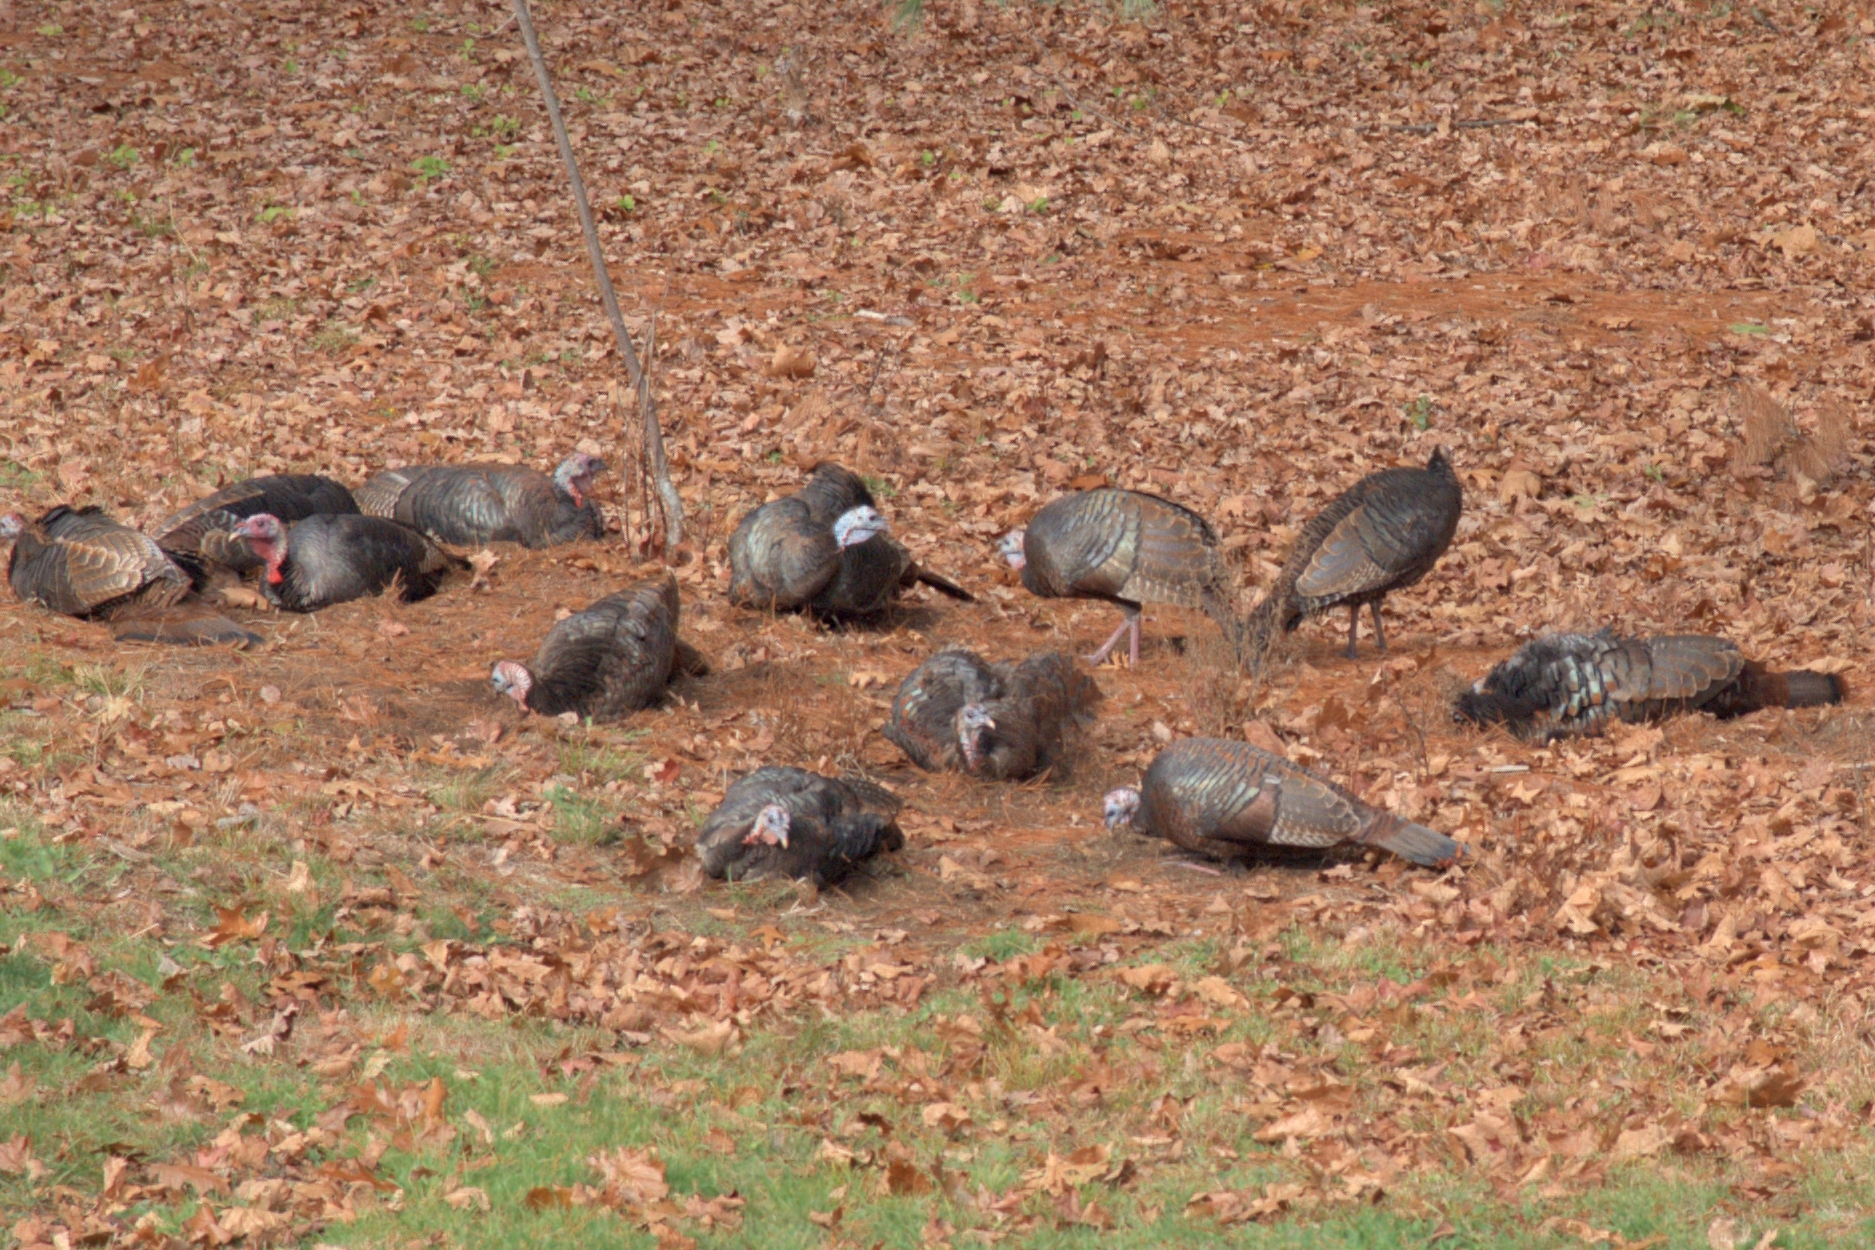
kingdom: Animalia
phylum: Chordata
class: Aves
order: Galliformes
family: Phasianidae
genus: Meleagris
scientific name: Meleagris gallopavo
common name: Wild turkey
